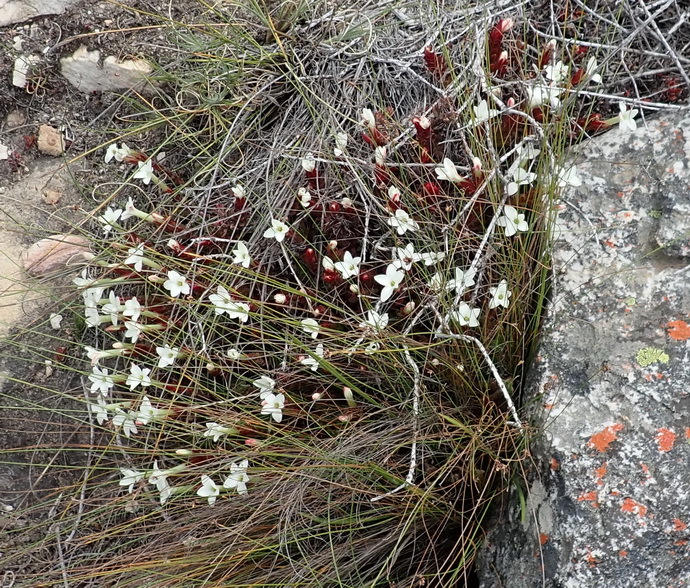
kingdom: Plantae
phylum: Tracheophyta
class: Magnoliopsida
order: Saxifragales
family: Crassulaceae
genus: Crassula
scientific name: Crassula obtusa
